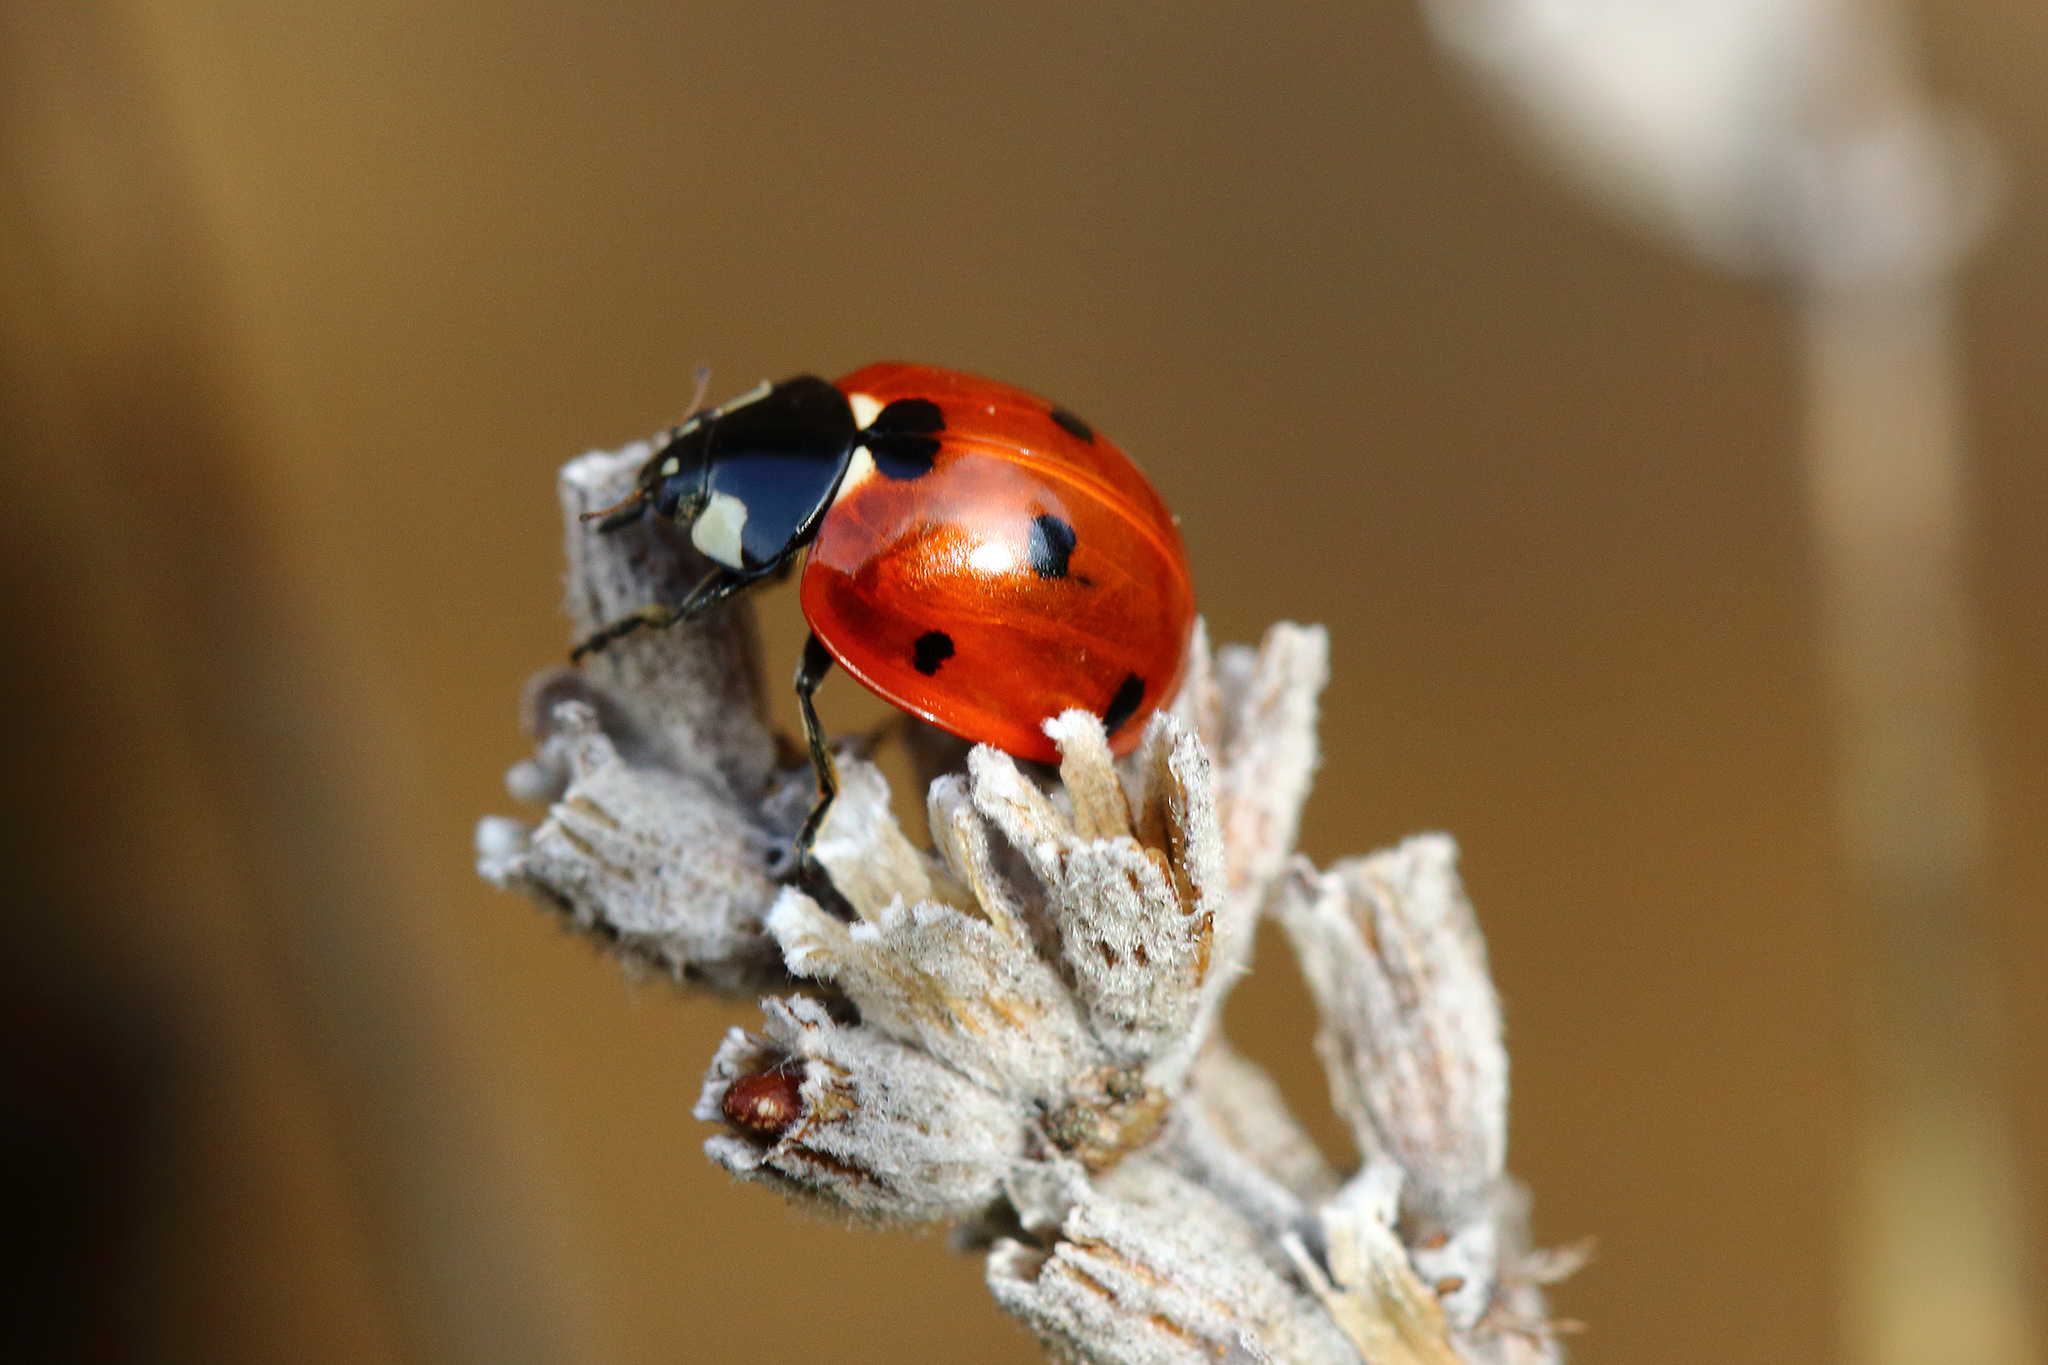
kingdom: Animalia
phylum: Arthropoda
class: Insecta
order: Coleoptera
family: Coccinellidae
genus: Coccinella
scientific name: Coccinella septempunctata
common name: Sevenspotted lady beetle
